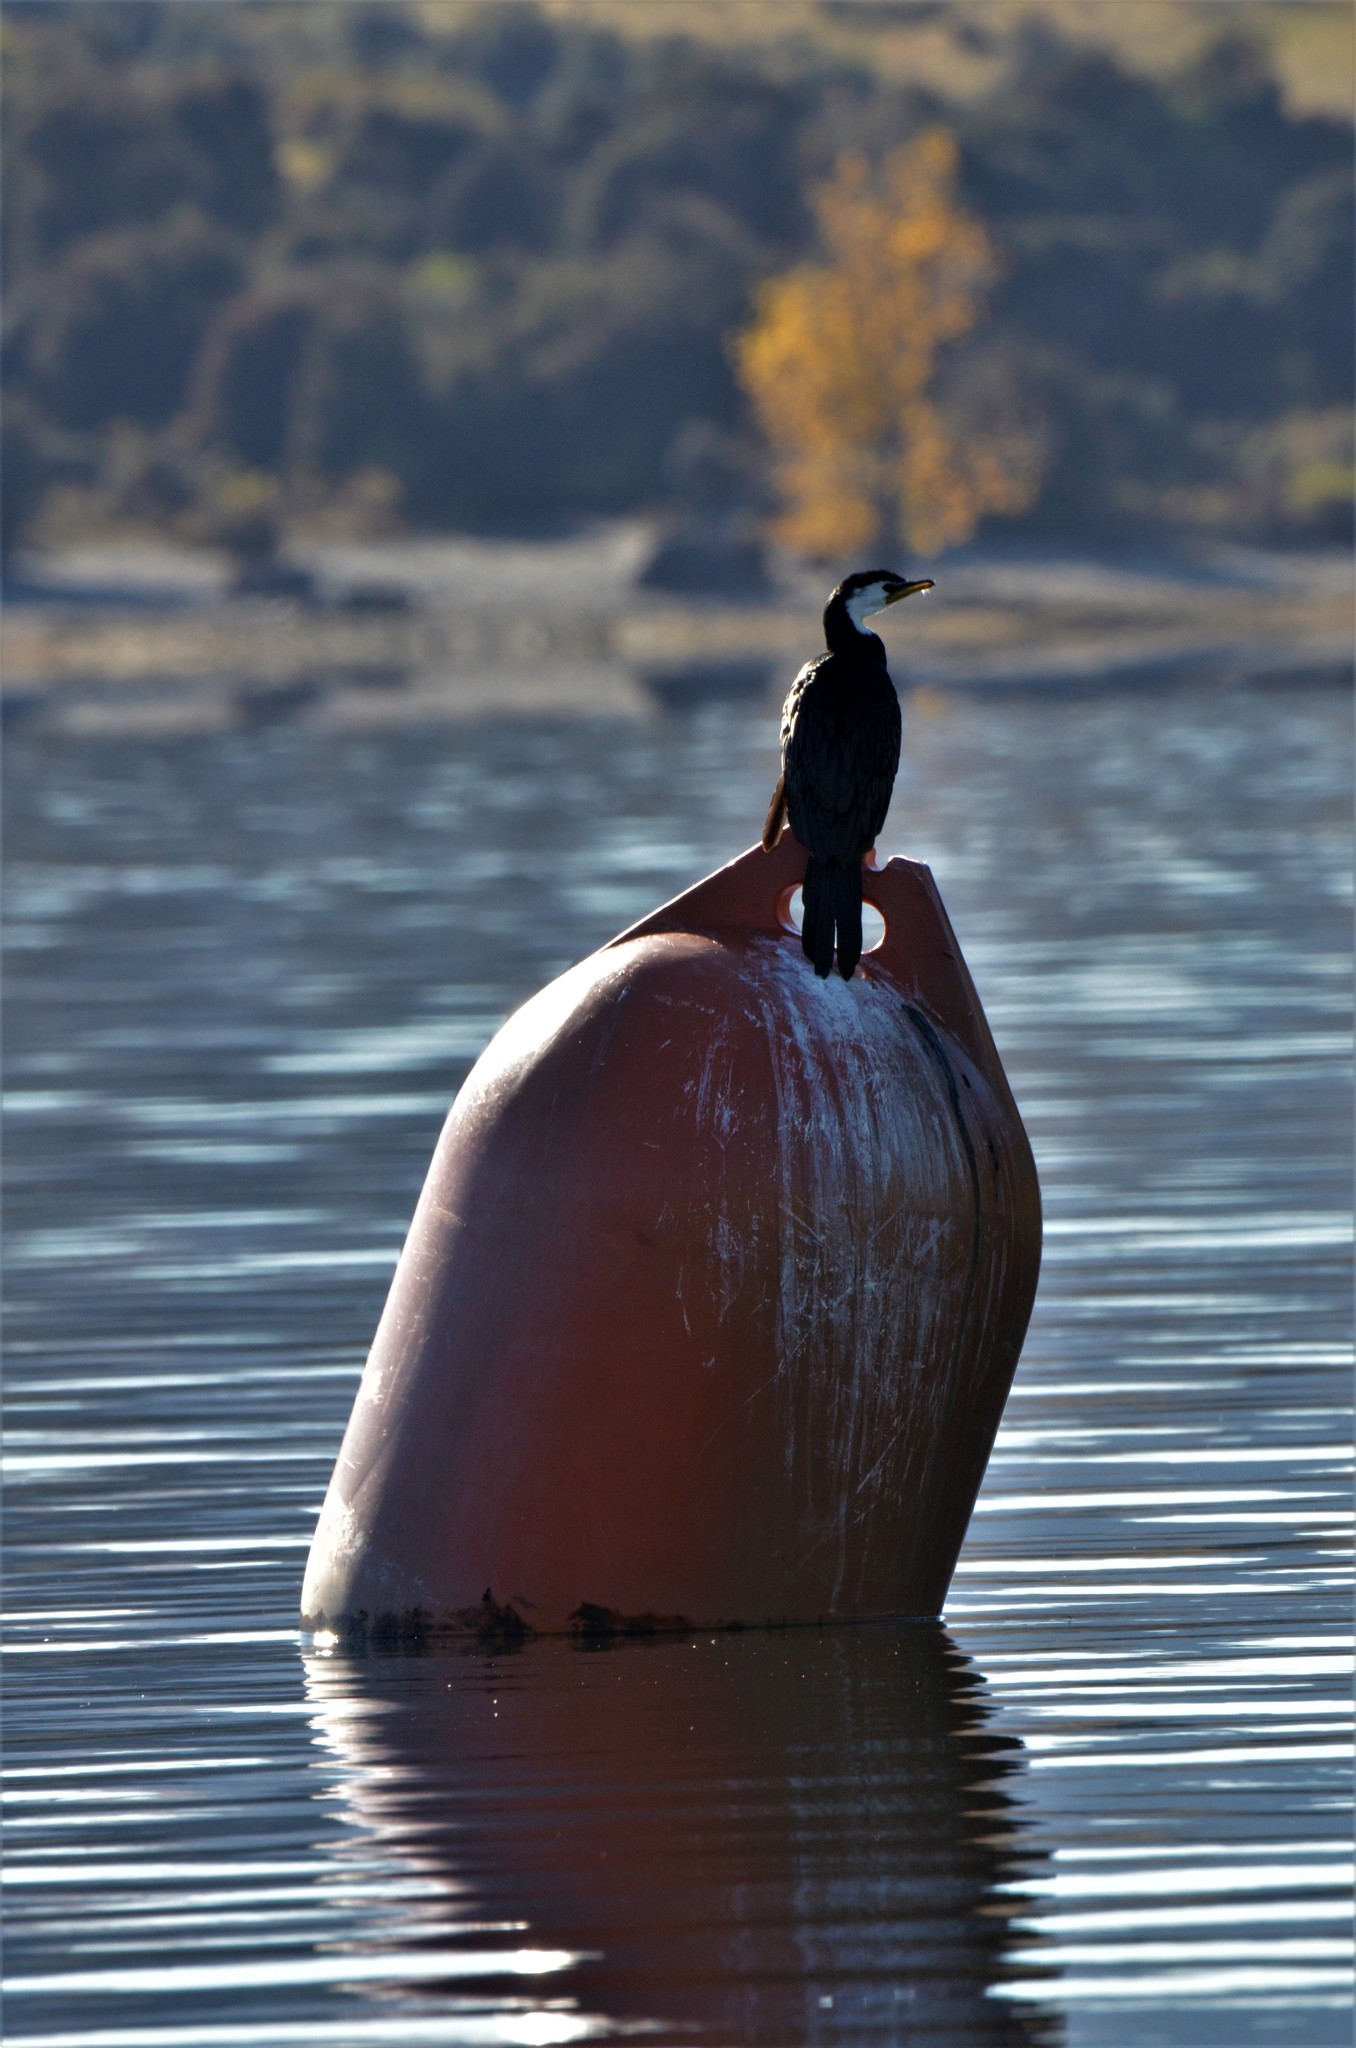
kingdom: Animalia
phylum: Chordata
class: Aves
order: Suliformes
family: Phalacrocoracidae
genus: Microcarbo
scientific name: Microcarbo melanoleucos
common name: Little pied cormorant
